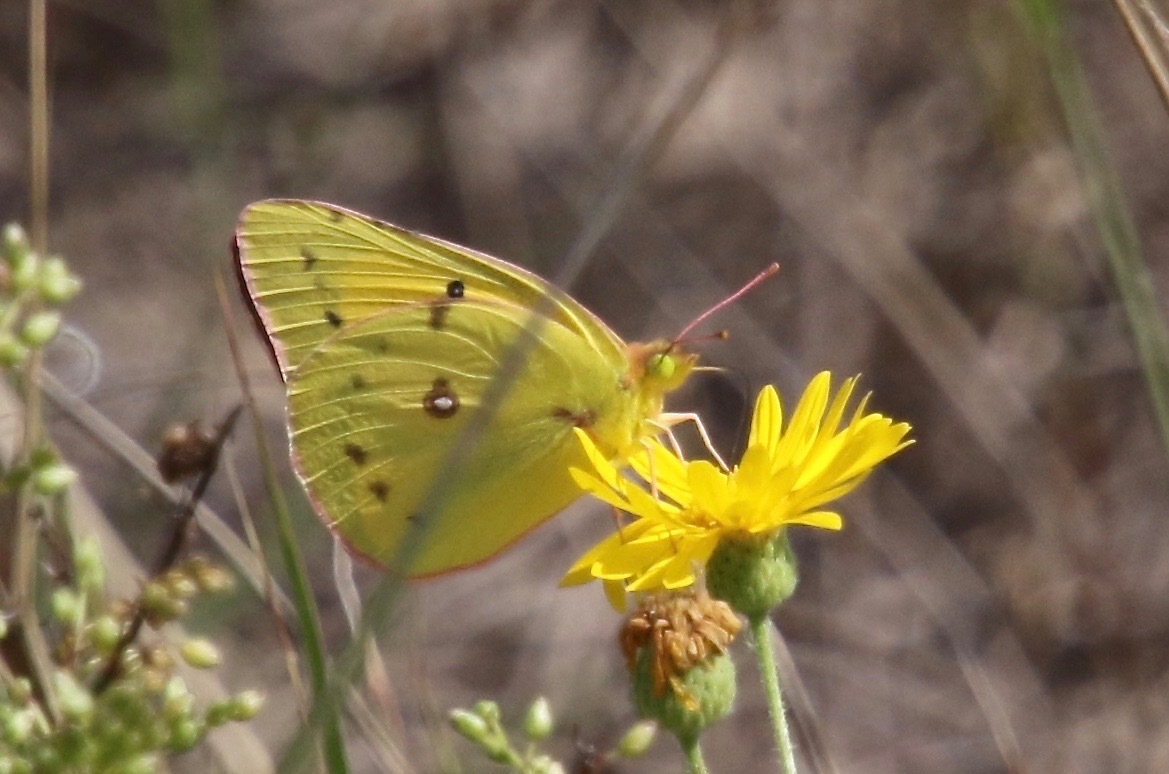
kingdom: Animalia
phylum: Arthropoda
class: Insecta
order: Lepidoptera
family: Pieridae
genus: Colias
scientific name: Colias eurytheme
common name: Alfalfa butterfly
